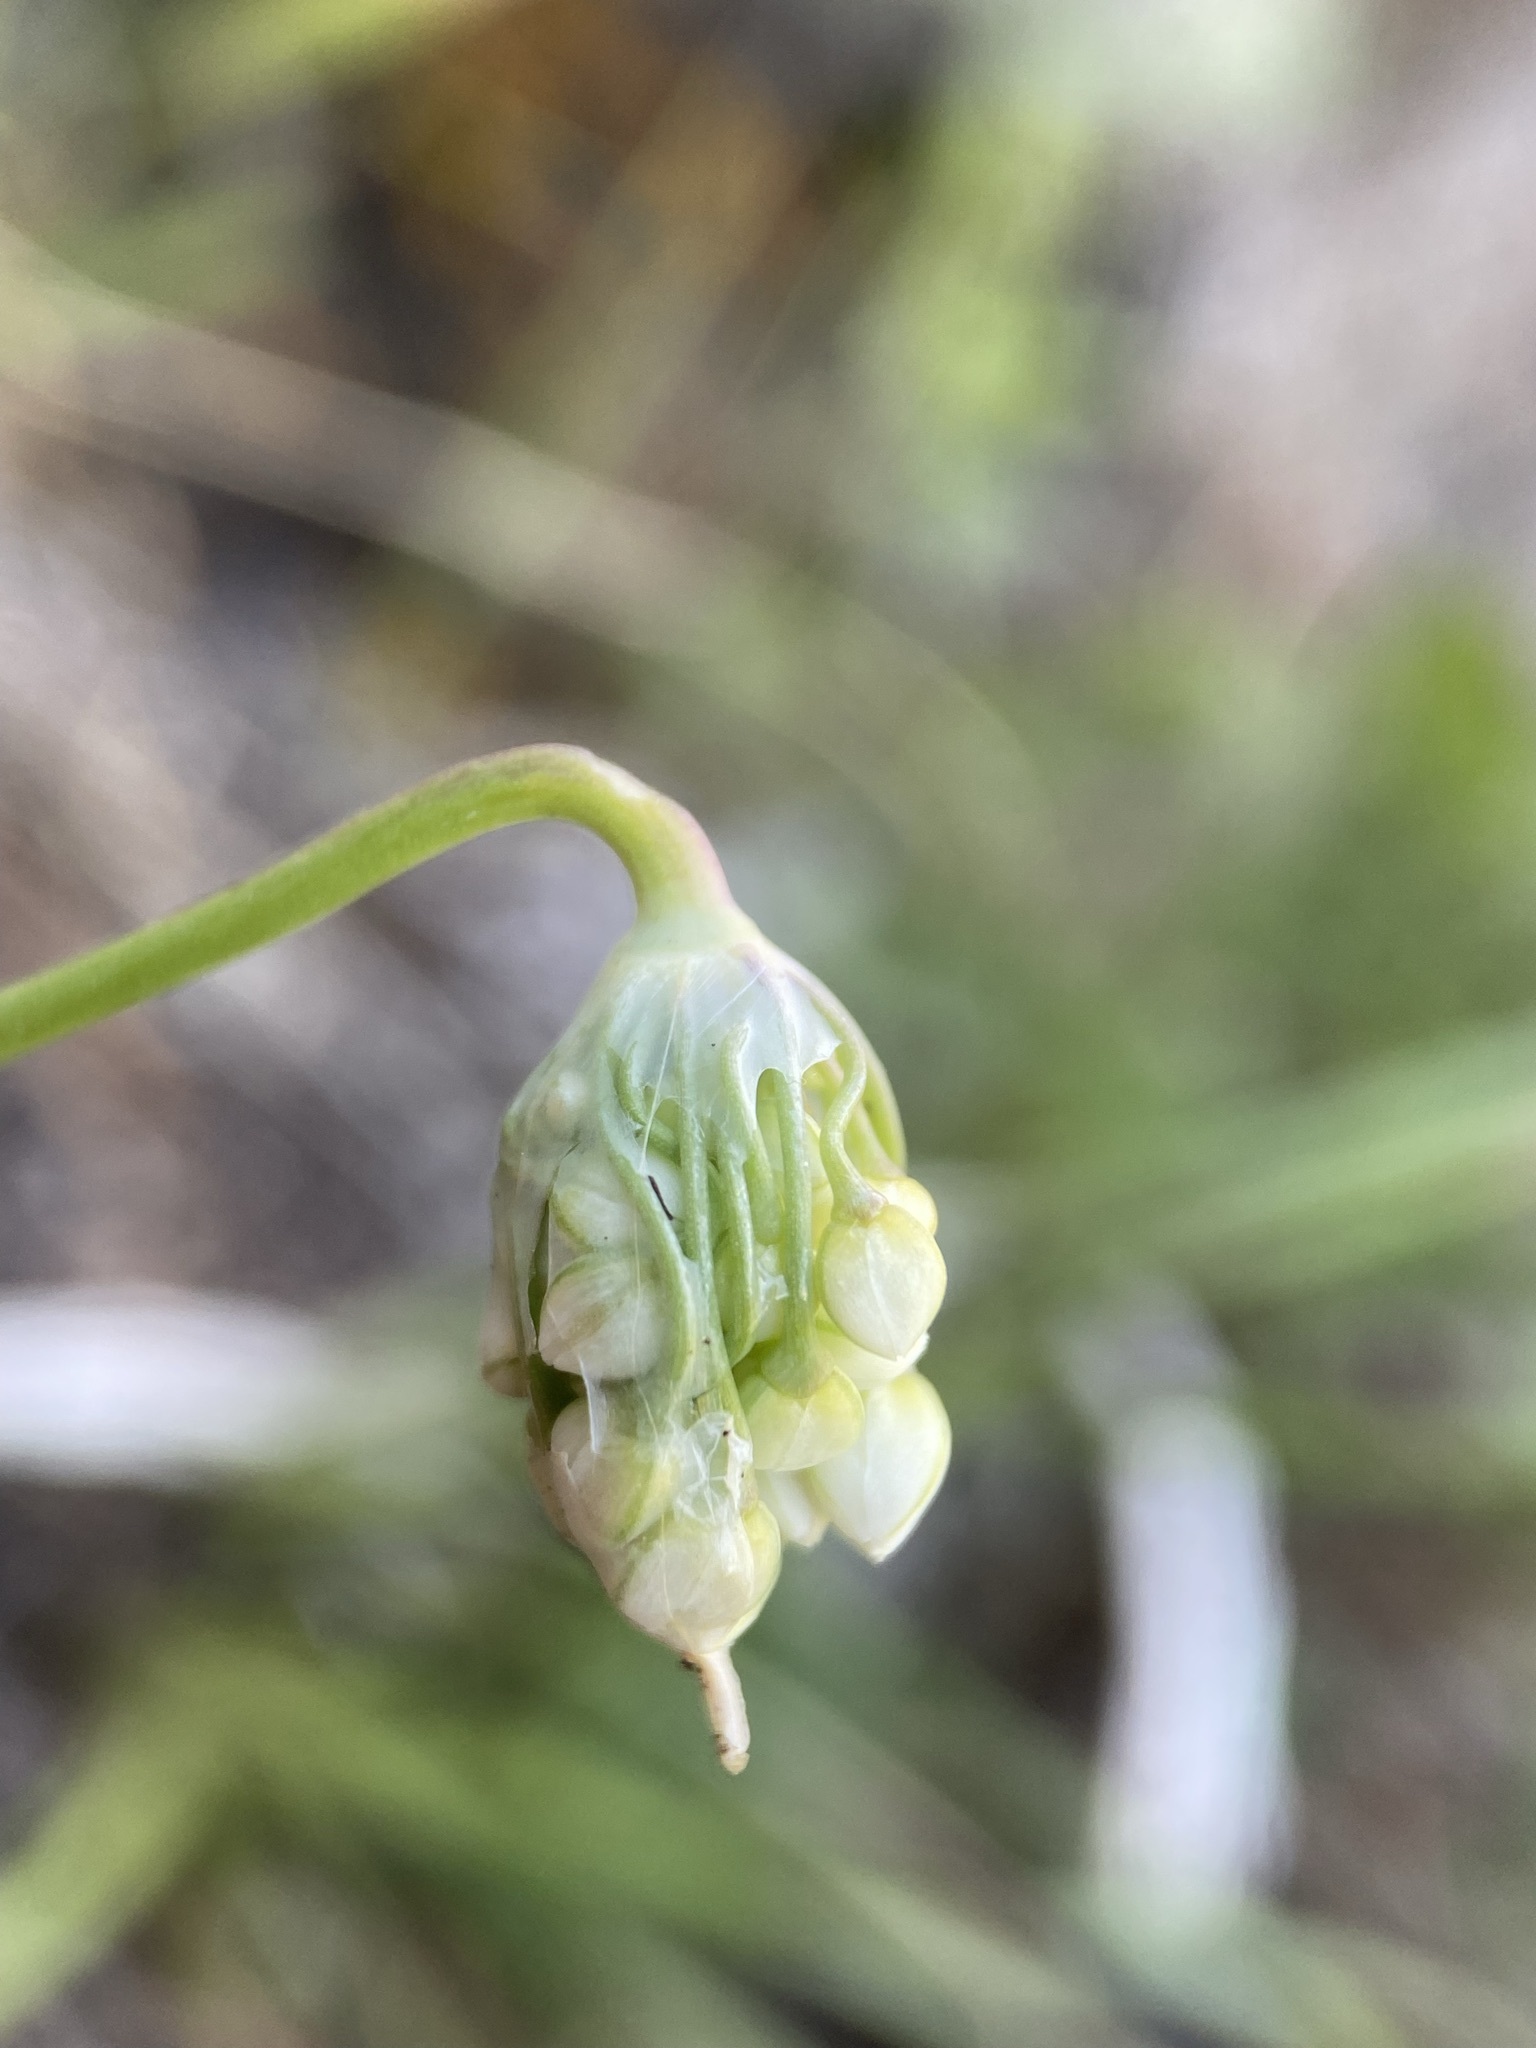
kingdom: Plantae
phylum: Tracheophyta
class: Liliopsida
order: Asparagales
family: Amaryllidaceae
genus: Allium
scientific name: Allium cernuum
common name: Nodding onion
